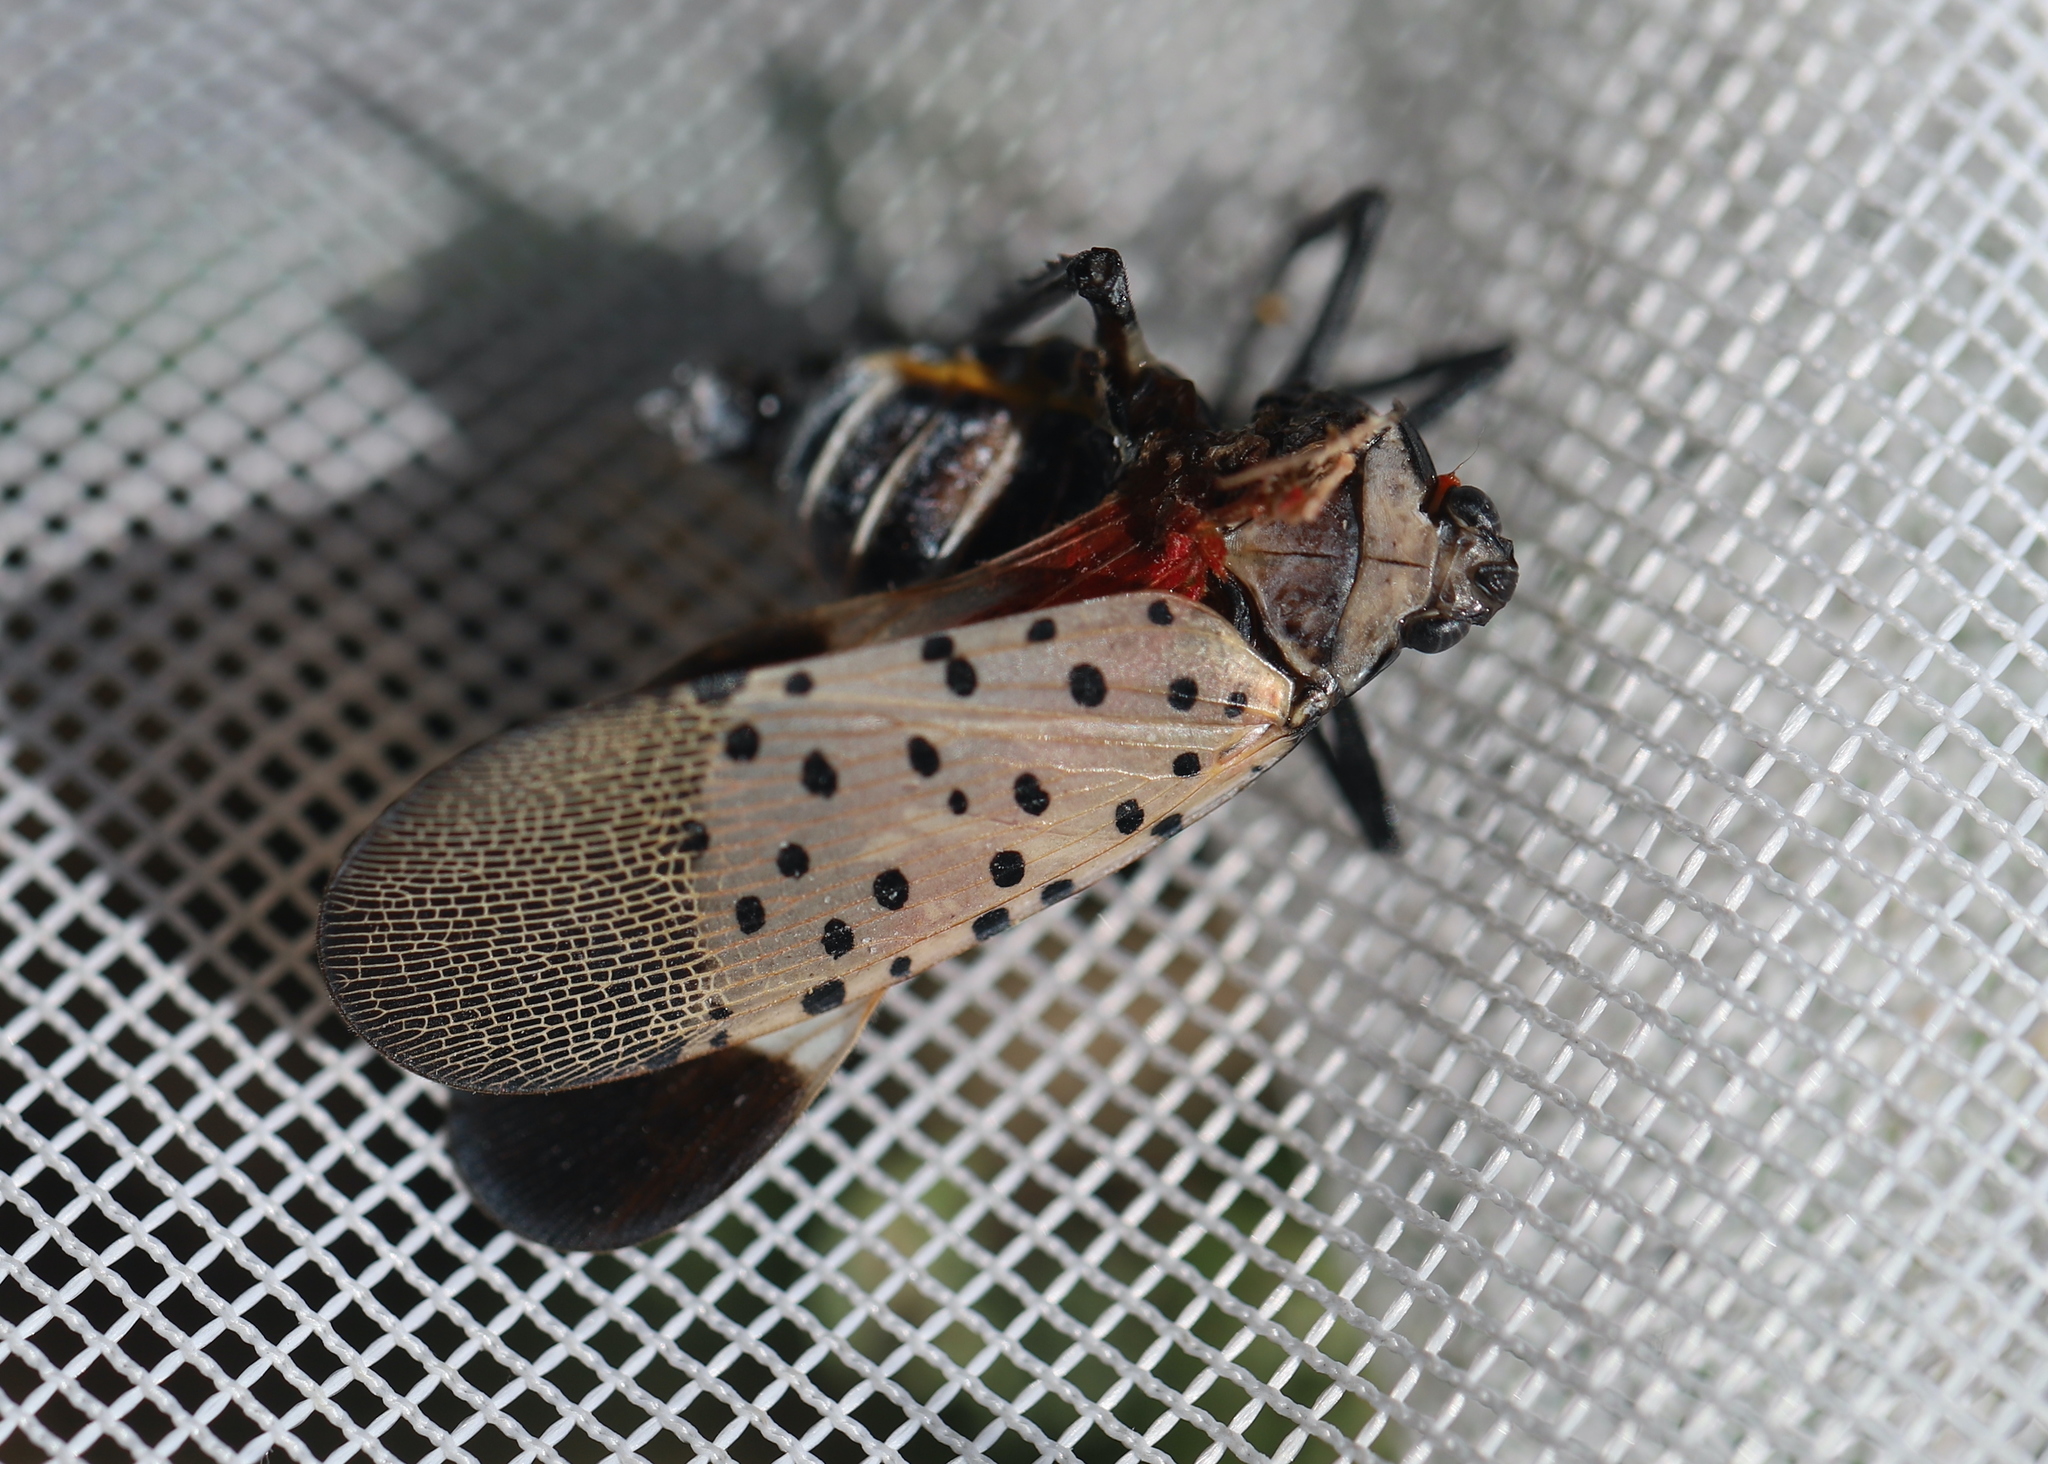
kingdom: Animalia
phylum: Arthropoda
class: Insecta
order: Hemiptera
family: Fulgoridae
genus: Lycorma
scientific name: Lycorma delicatula
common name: Spotted lanternfly
